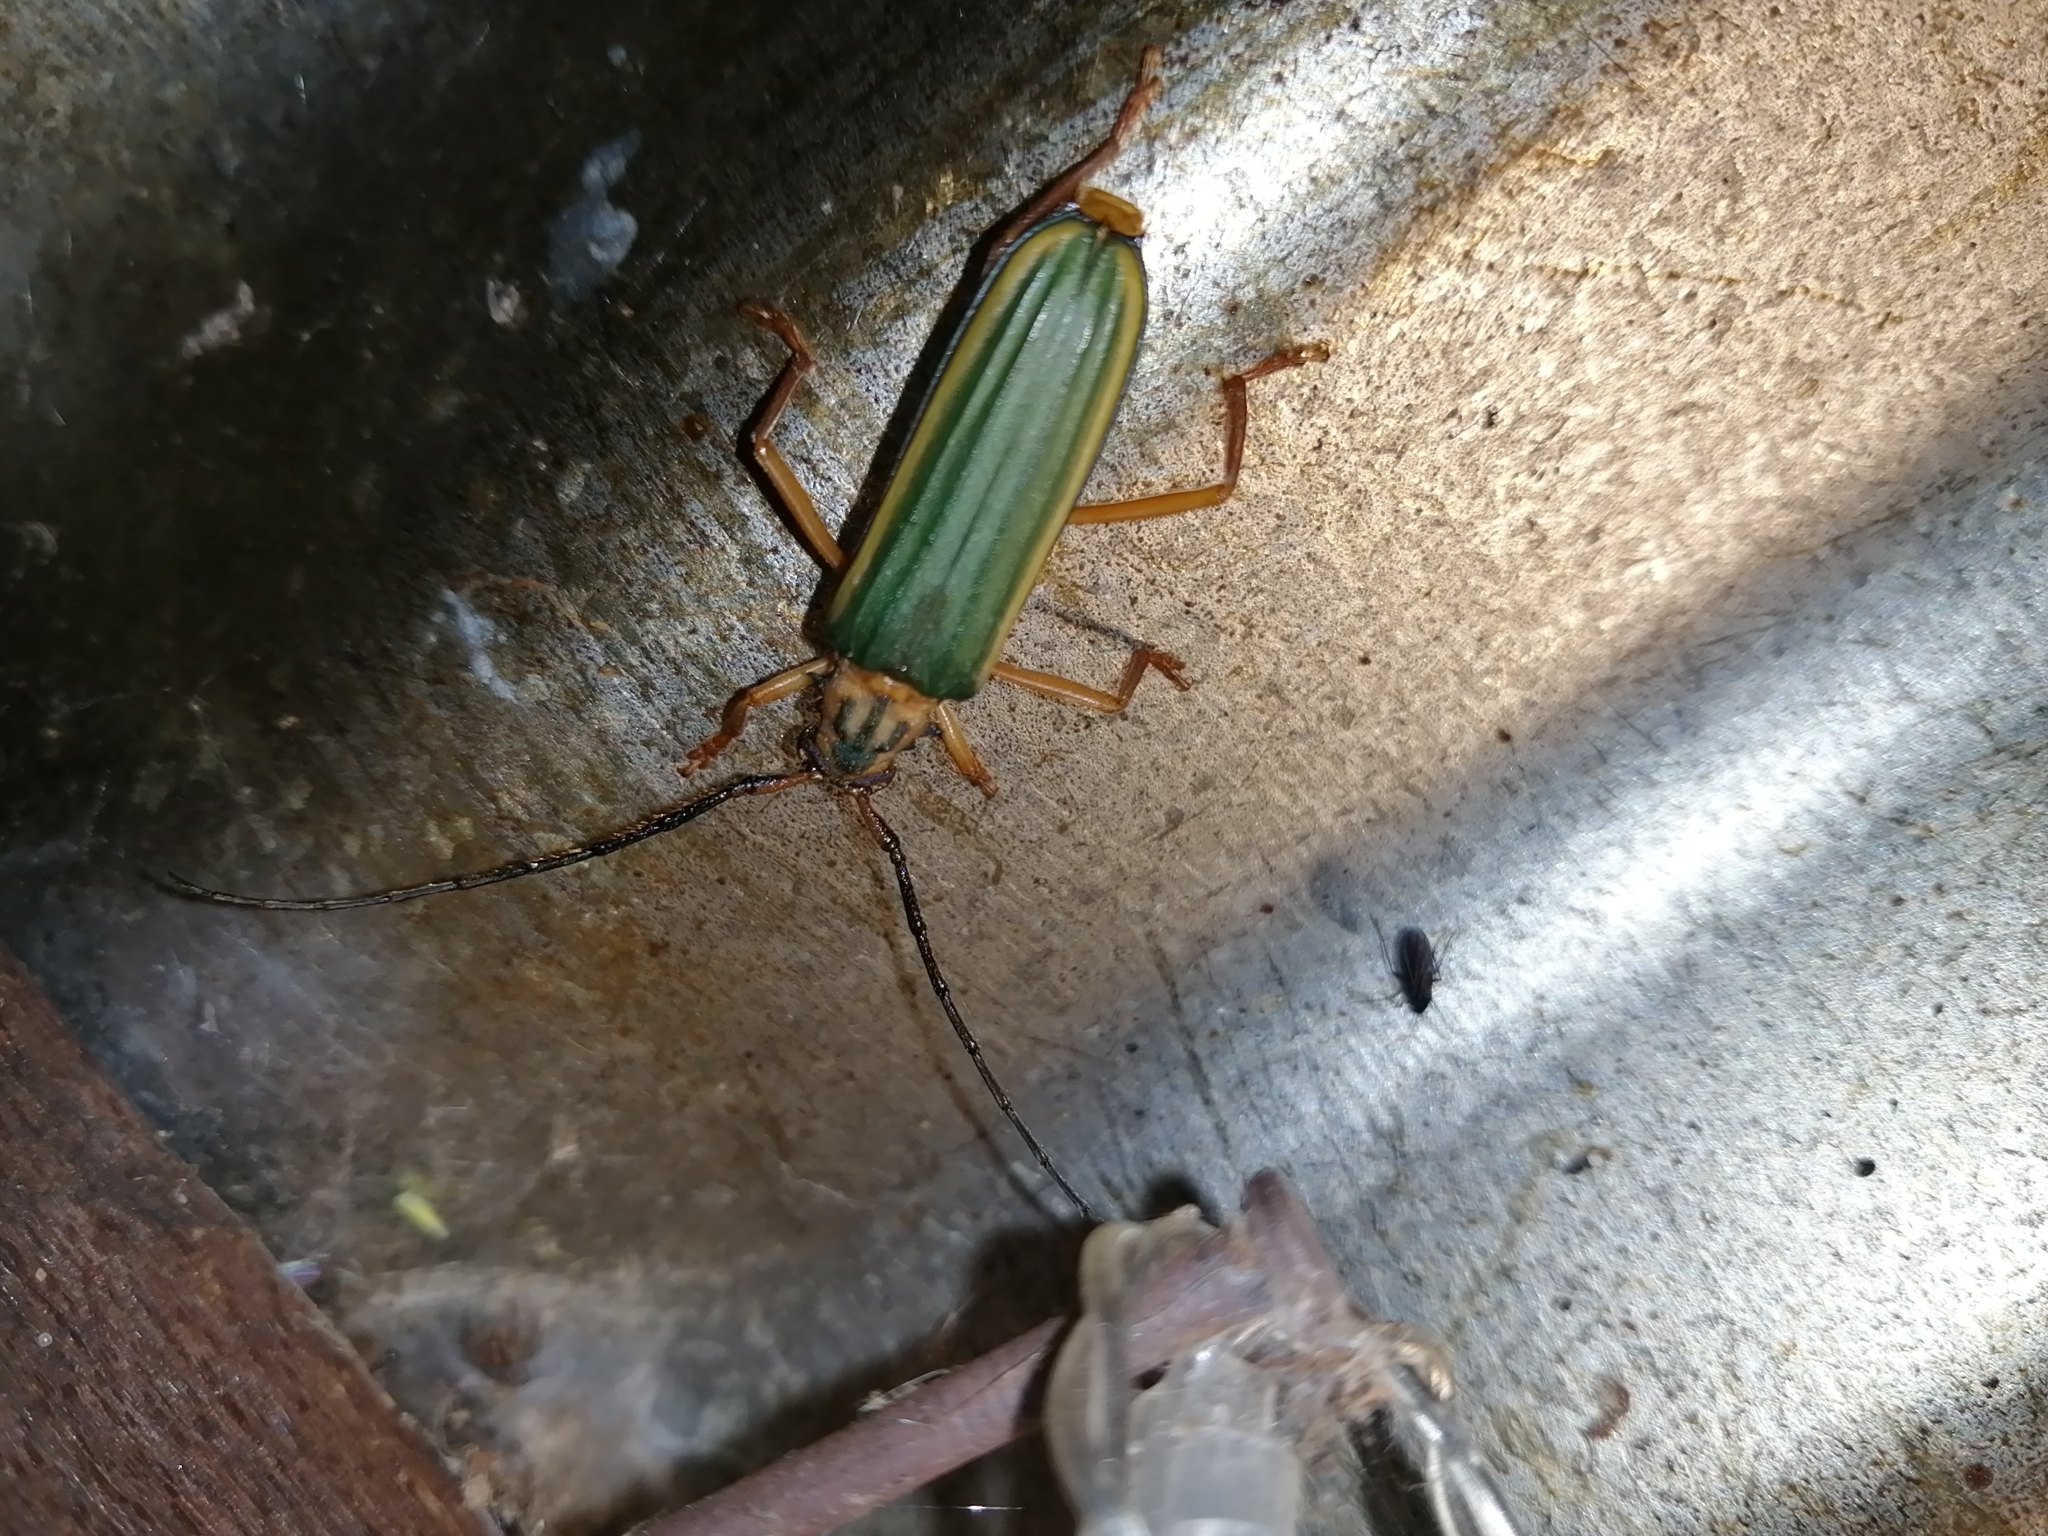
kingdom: Animalia
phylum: Arthropoda
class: Insecta
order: Coleoptera
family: Cerambycidae
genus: Chlorida
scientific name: Chlorida festiva
